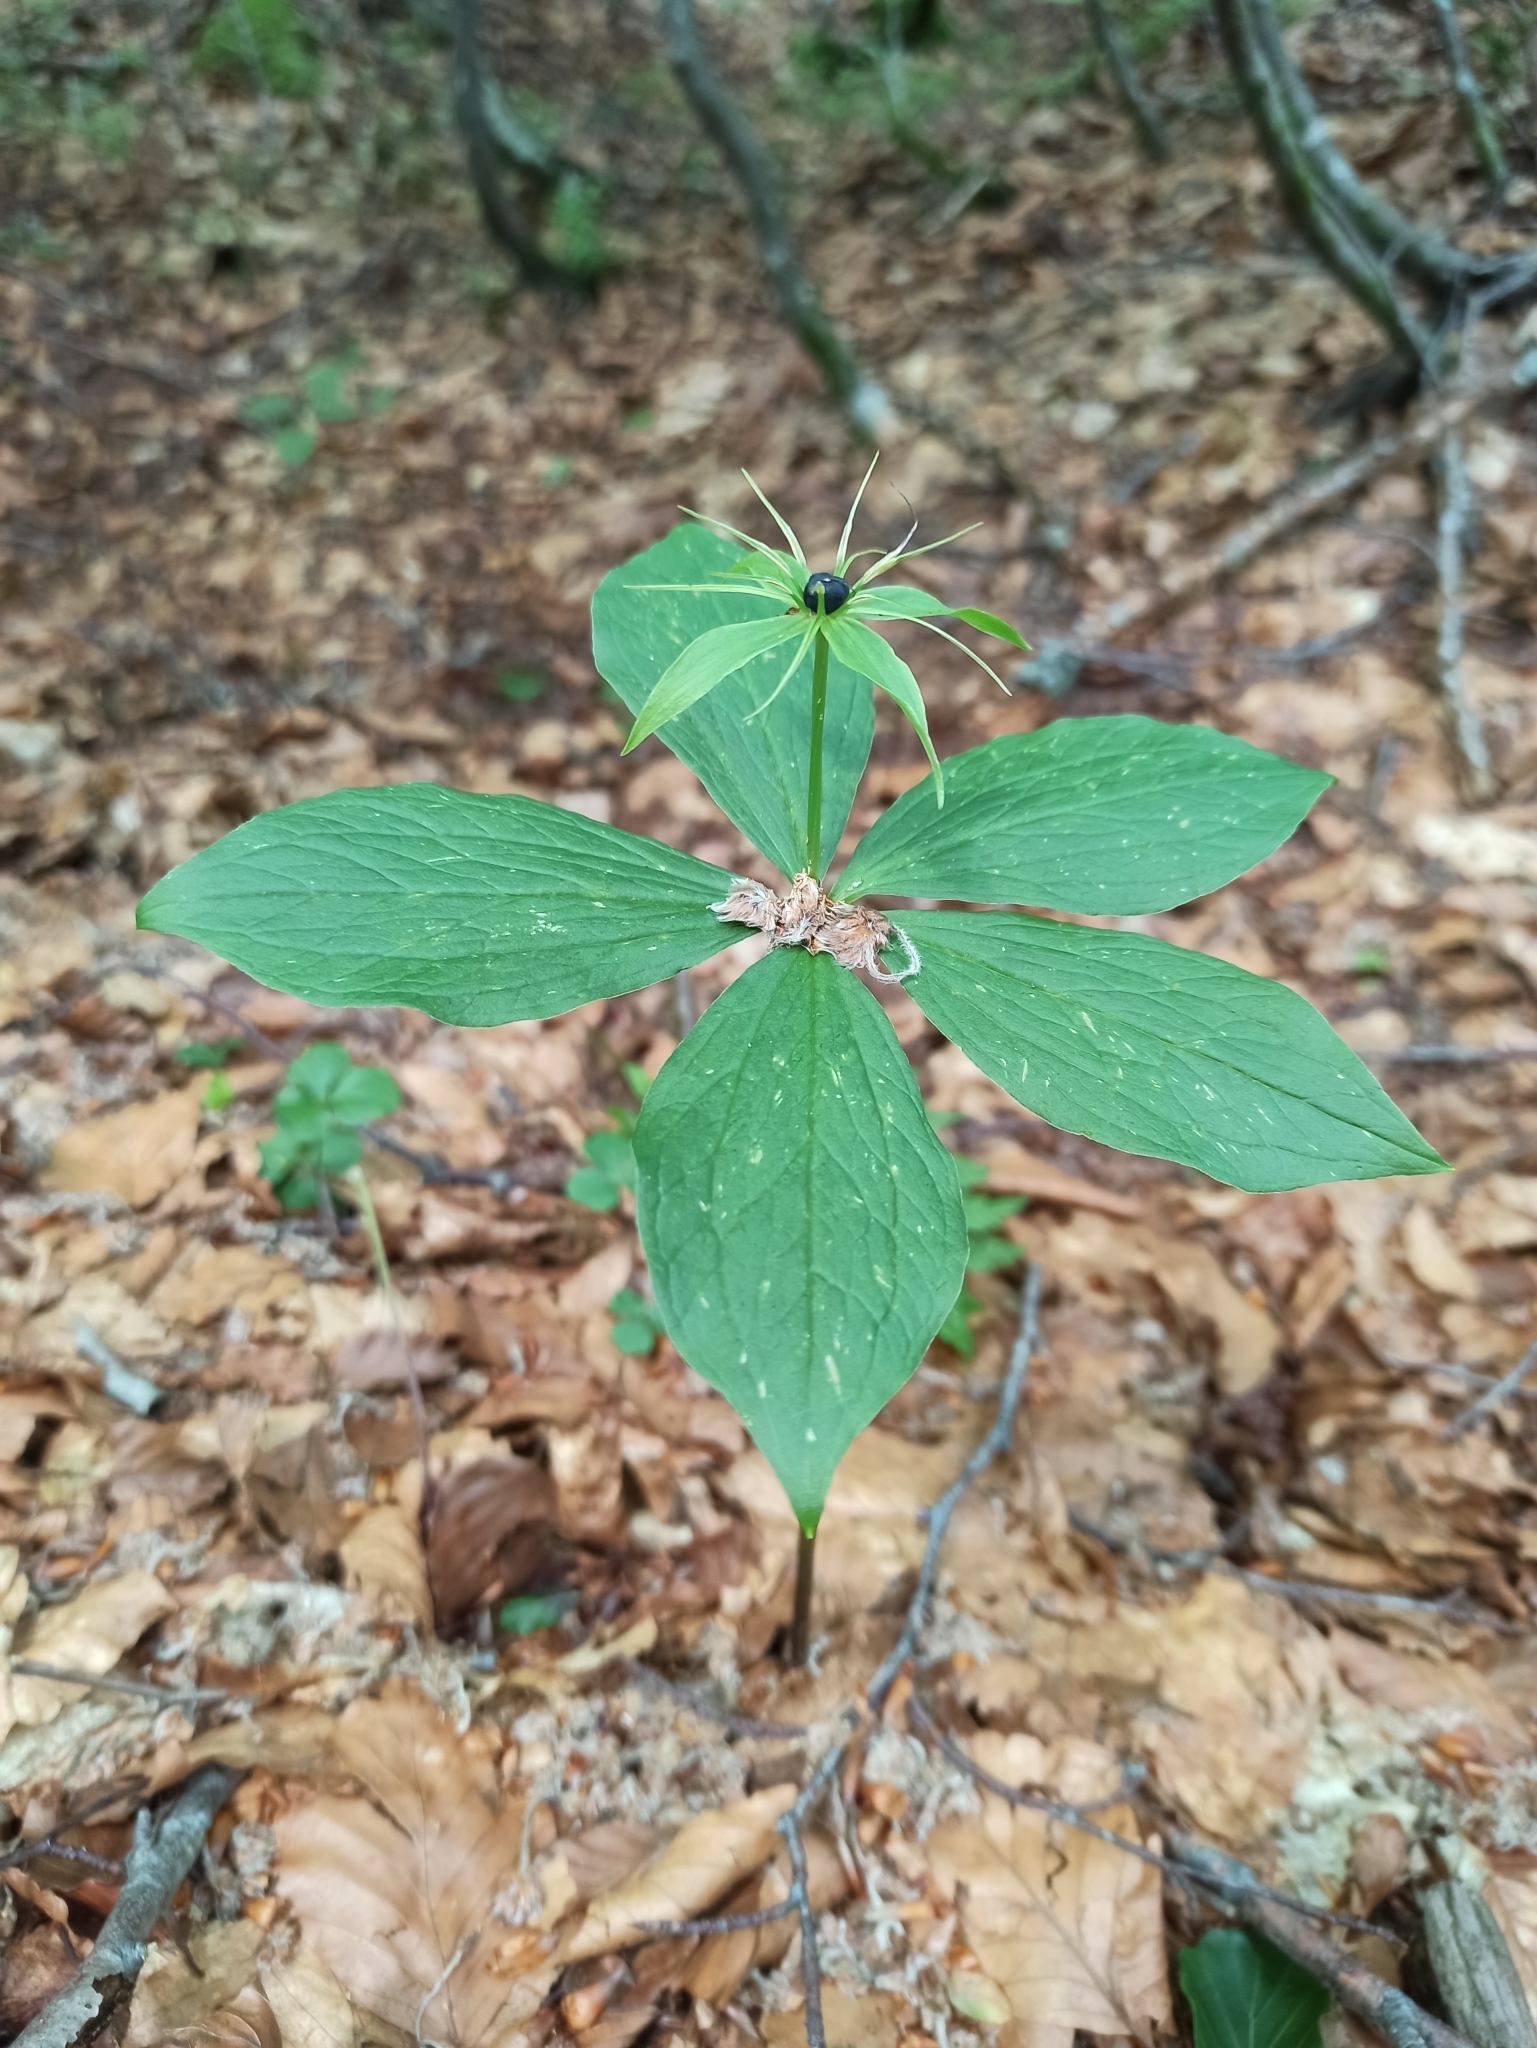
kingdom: Plantae
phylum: Tracheophyta
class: Liliopsida
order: Liliales
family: Melanthiaceae
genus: Paris
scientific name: Paris quadrifolia
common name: Herb-paris
